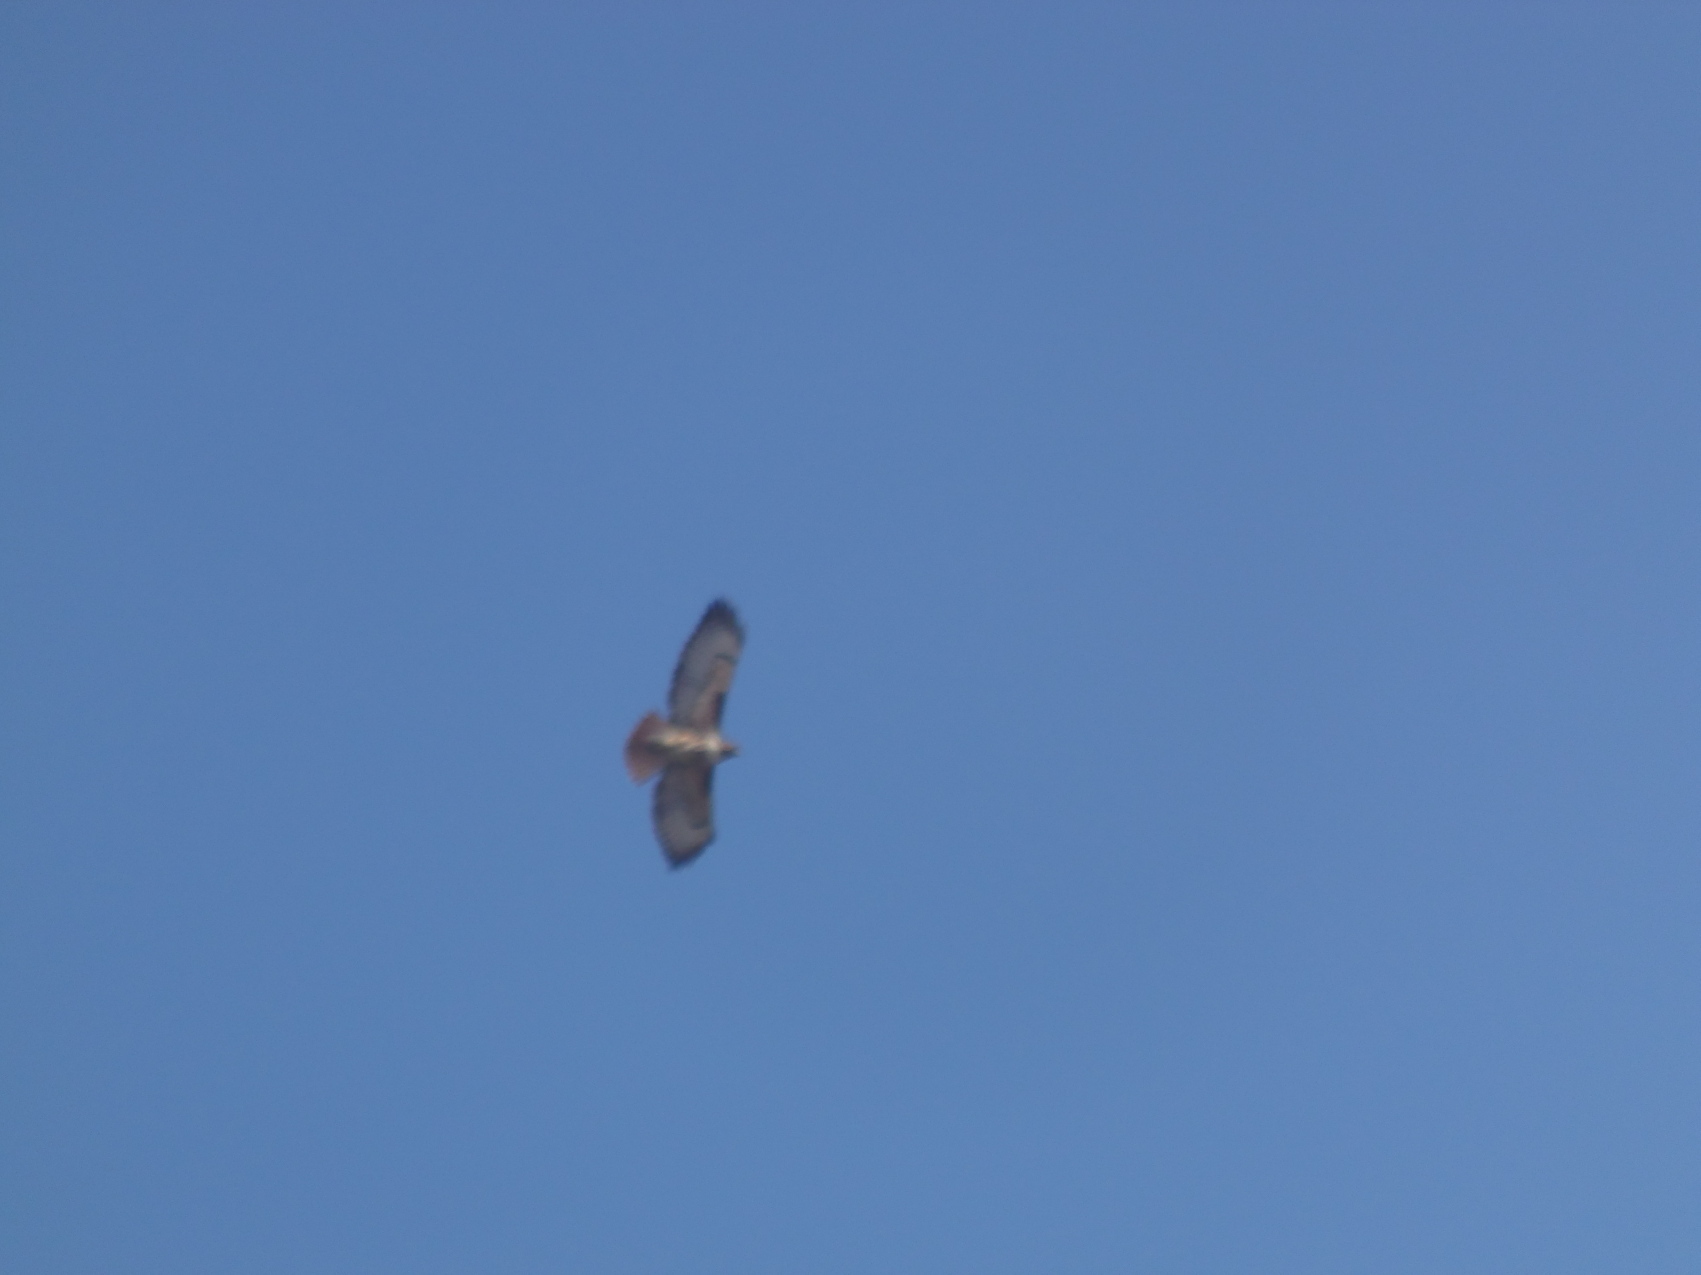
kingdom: Animalia
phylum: Chordata
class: Aves
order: Accipitriformes
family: Accipitridae
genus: Buteo
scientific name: Buteo jamaicensis
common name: Red-tailed hawk
